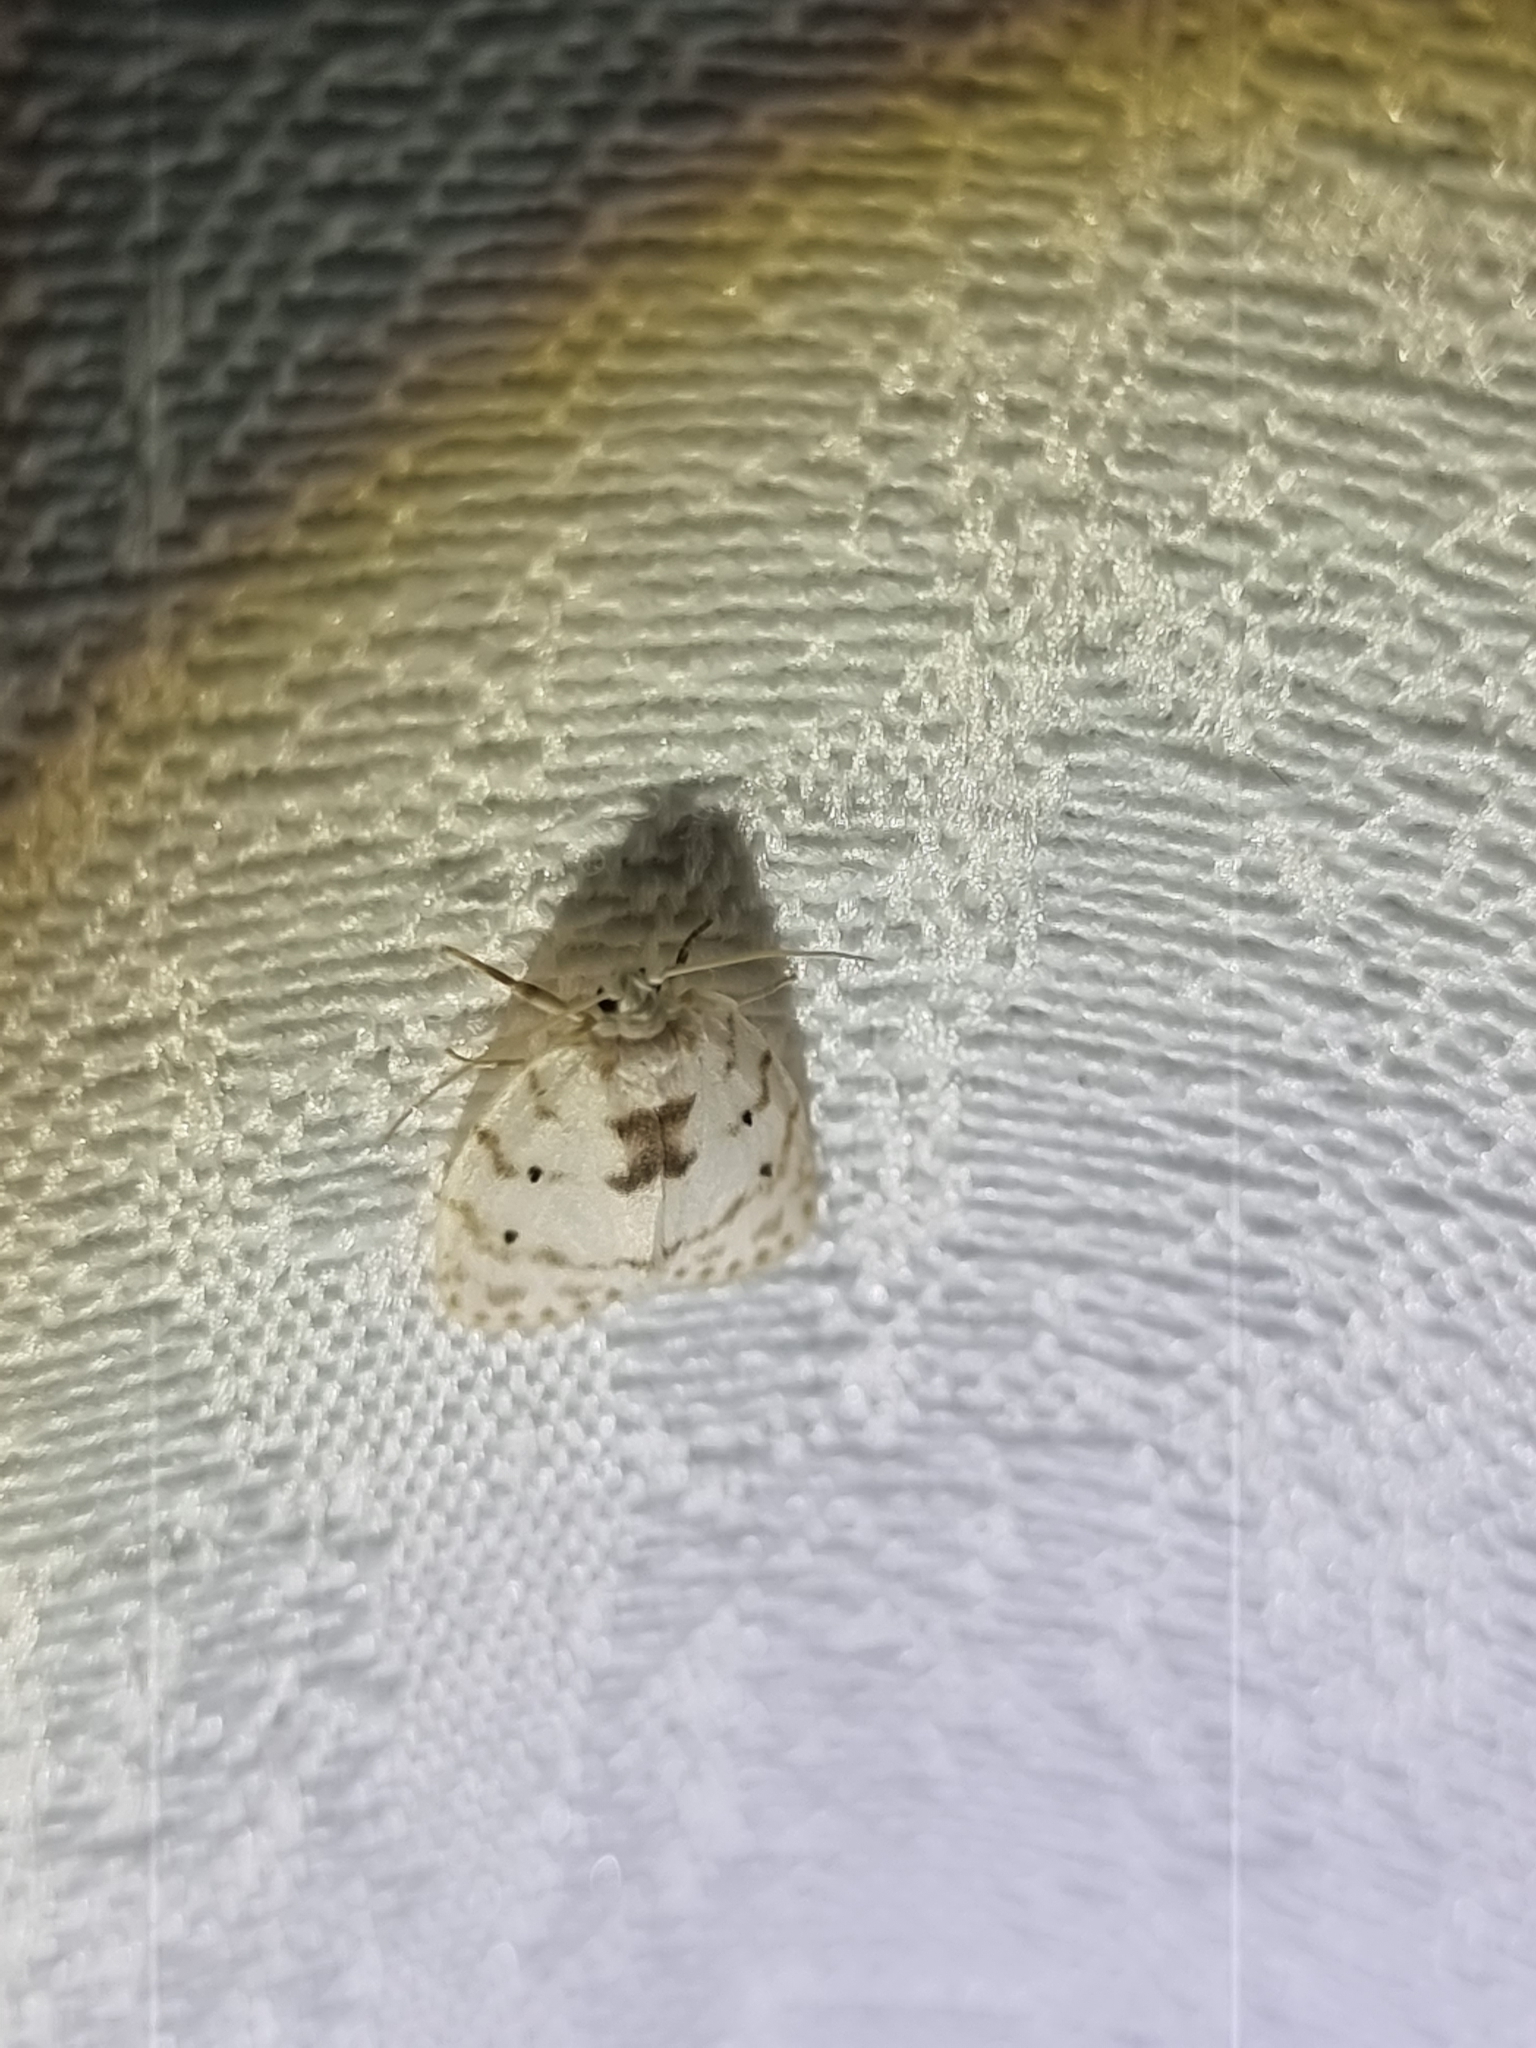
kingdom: Animalia
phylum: Arthropoda
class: Insecta
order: Lepidoptera
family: Erebidae
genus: Schistophleps
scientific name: Schistophleps albida
